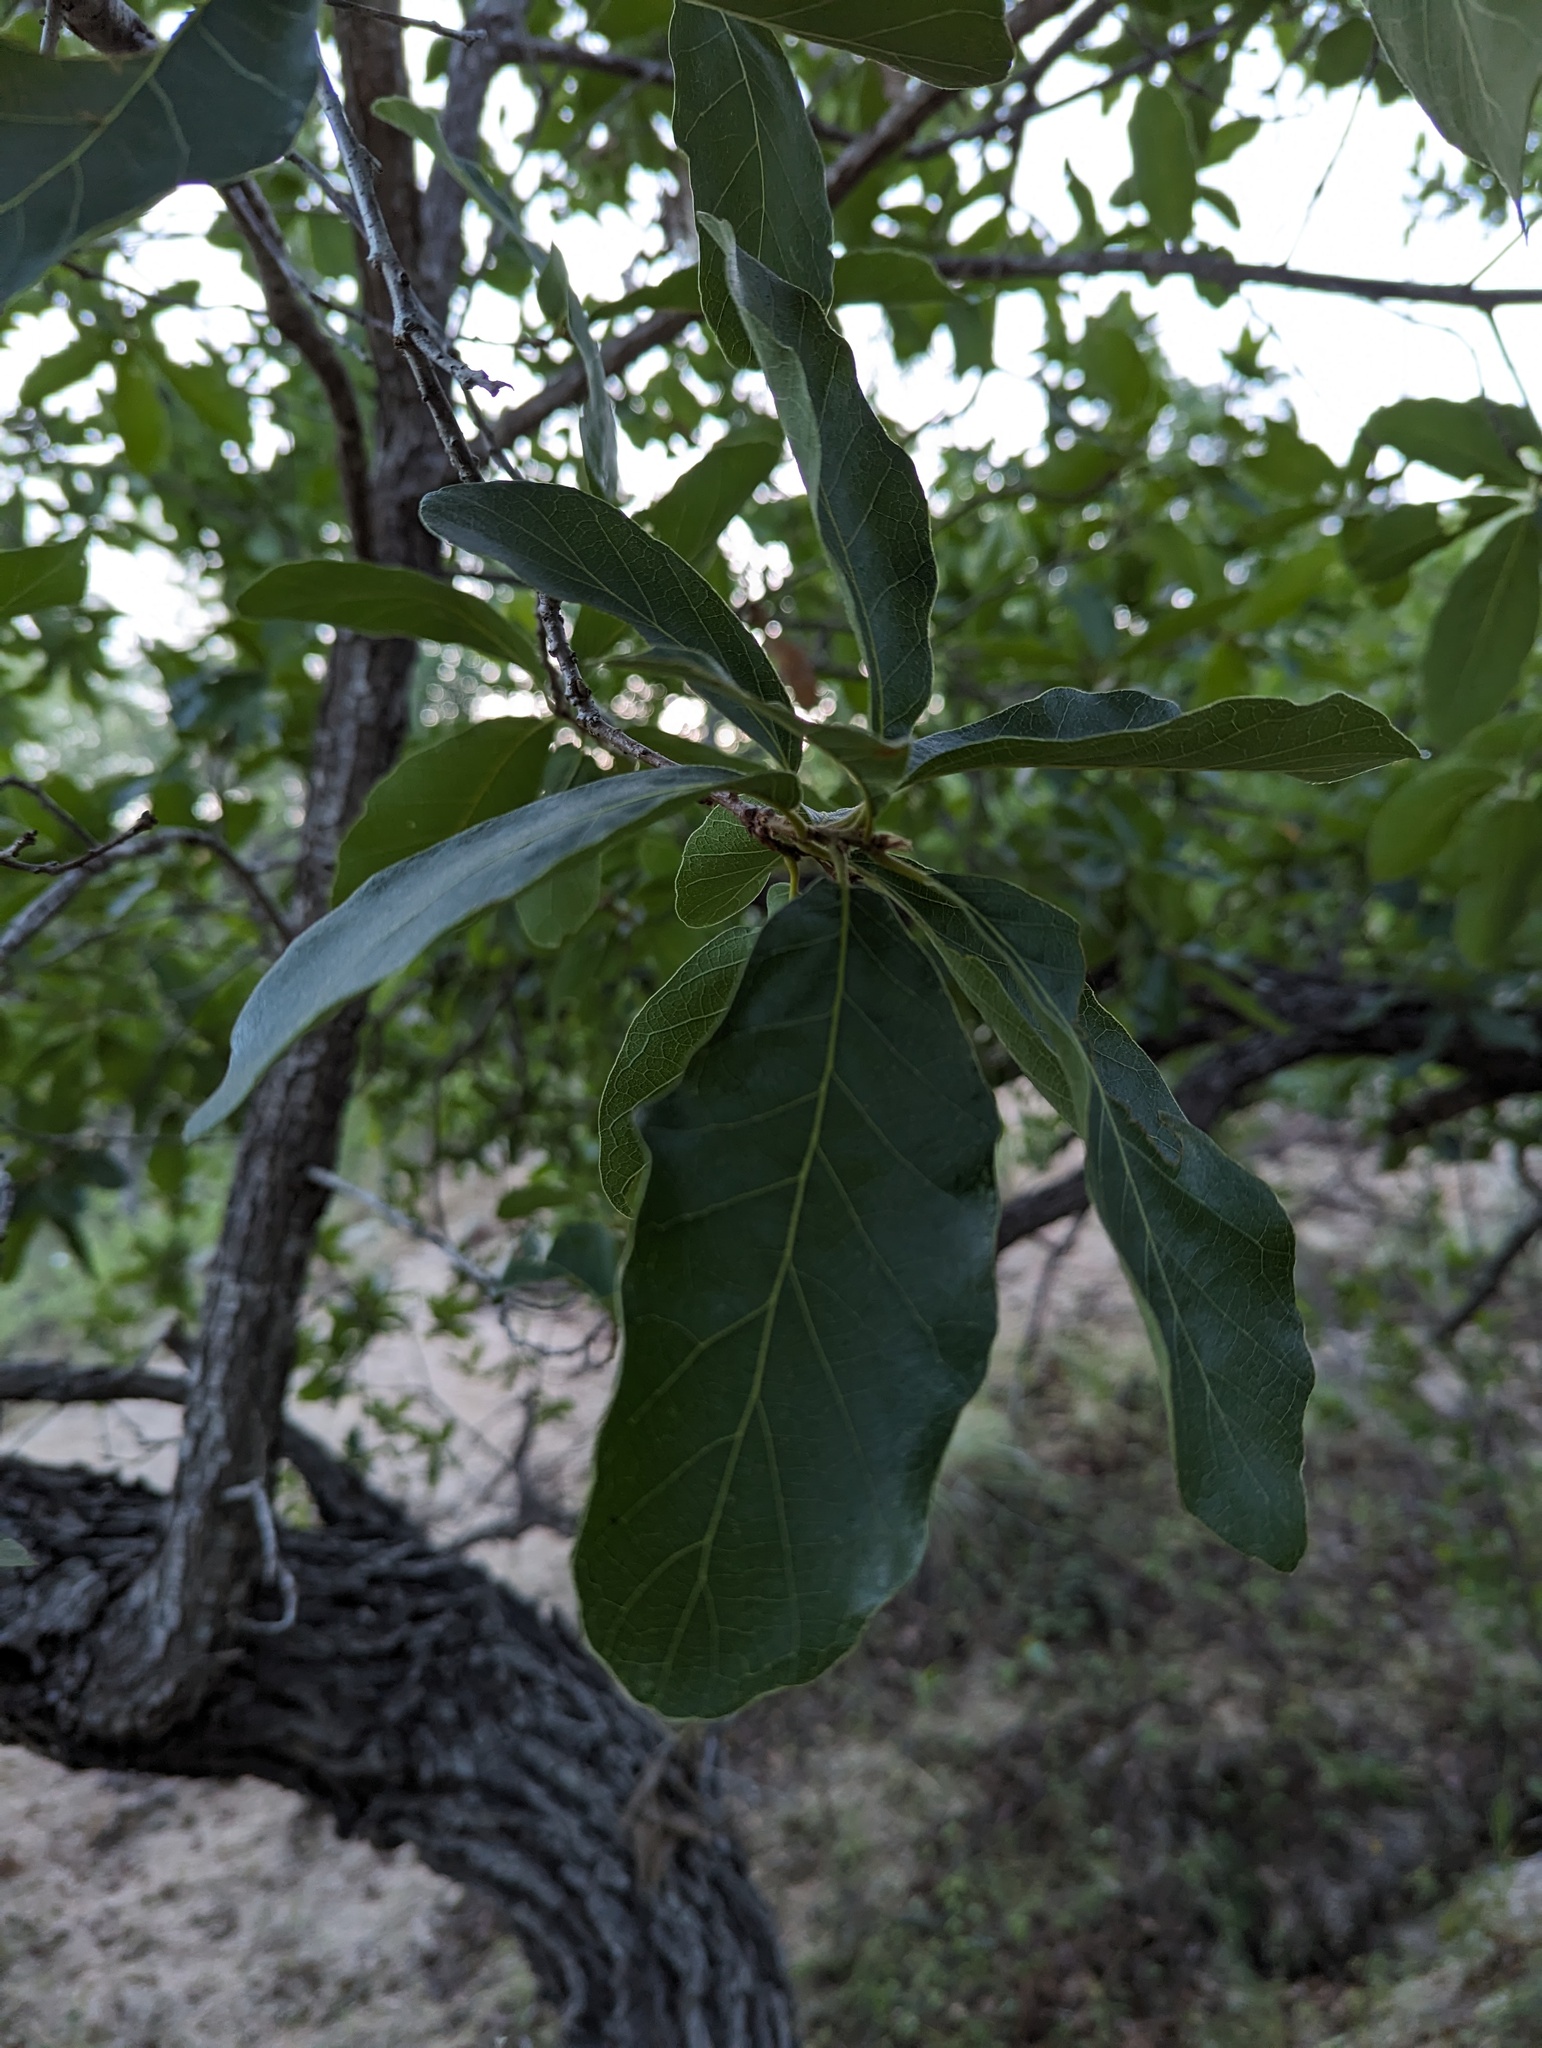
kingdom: Plantae
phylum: Tracheophyta
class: Magnoliopsida
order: Fagales
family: Fagaceae
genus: Quercus
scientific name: Quercus tuberculata
